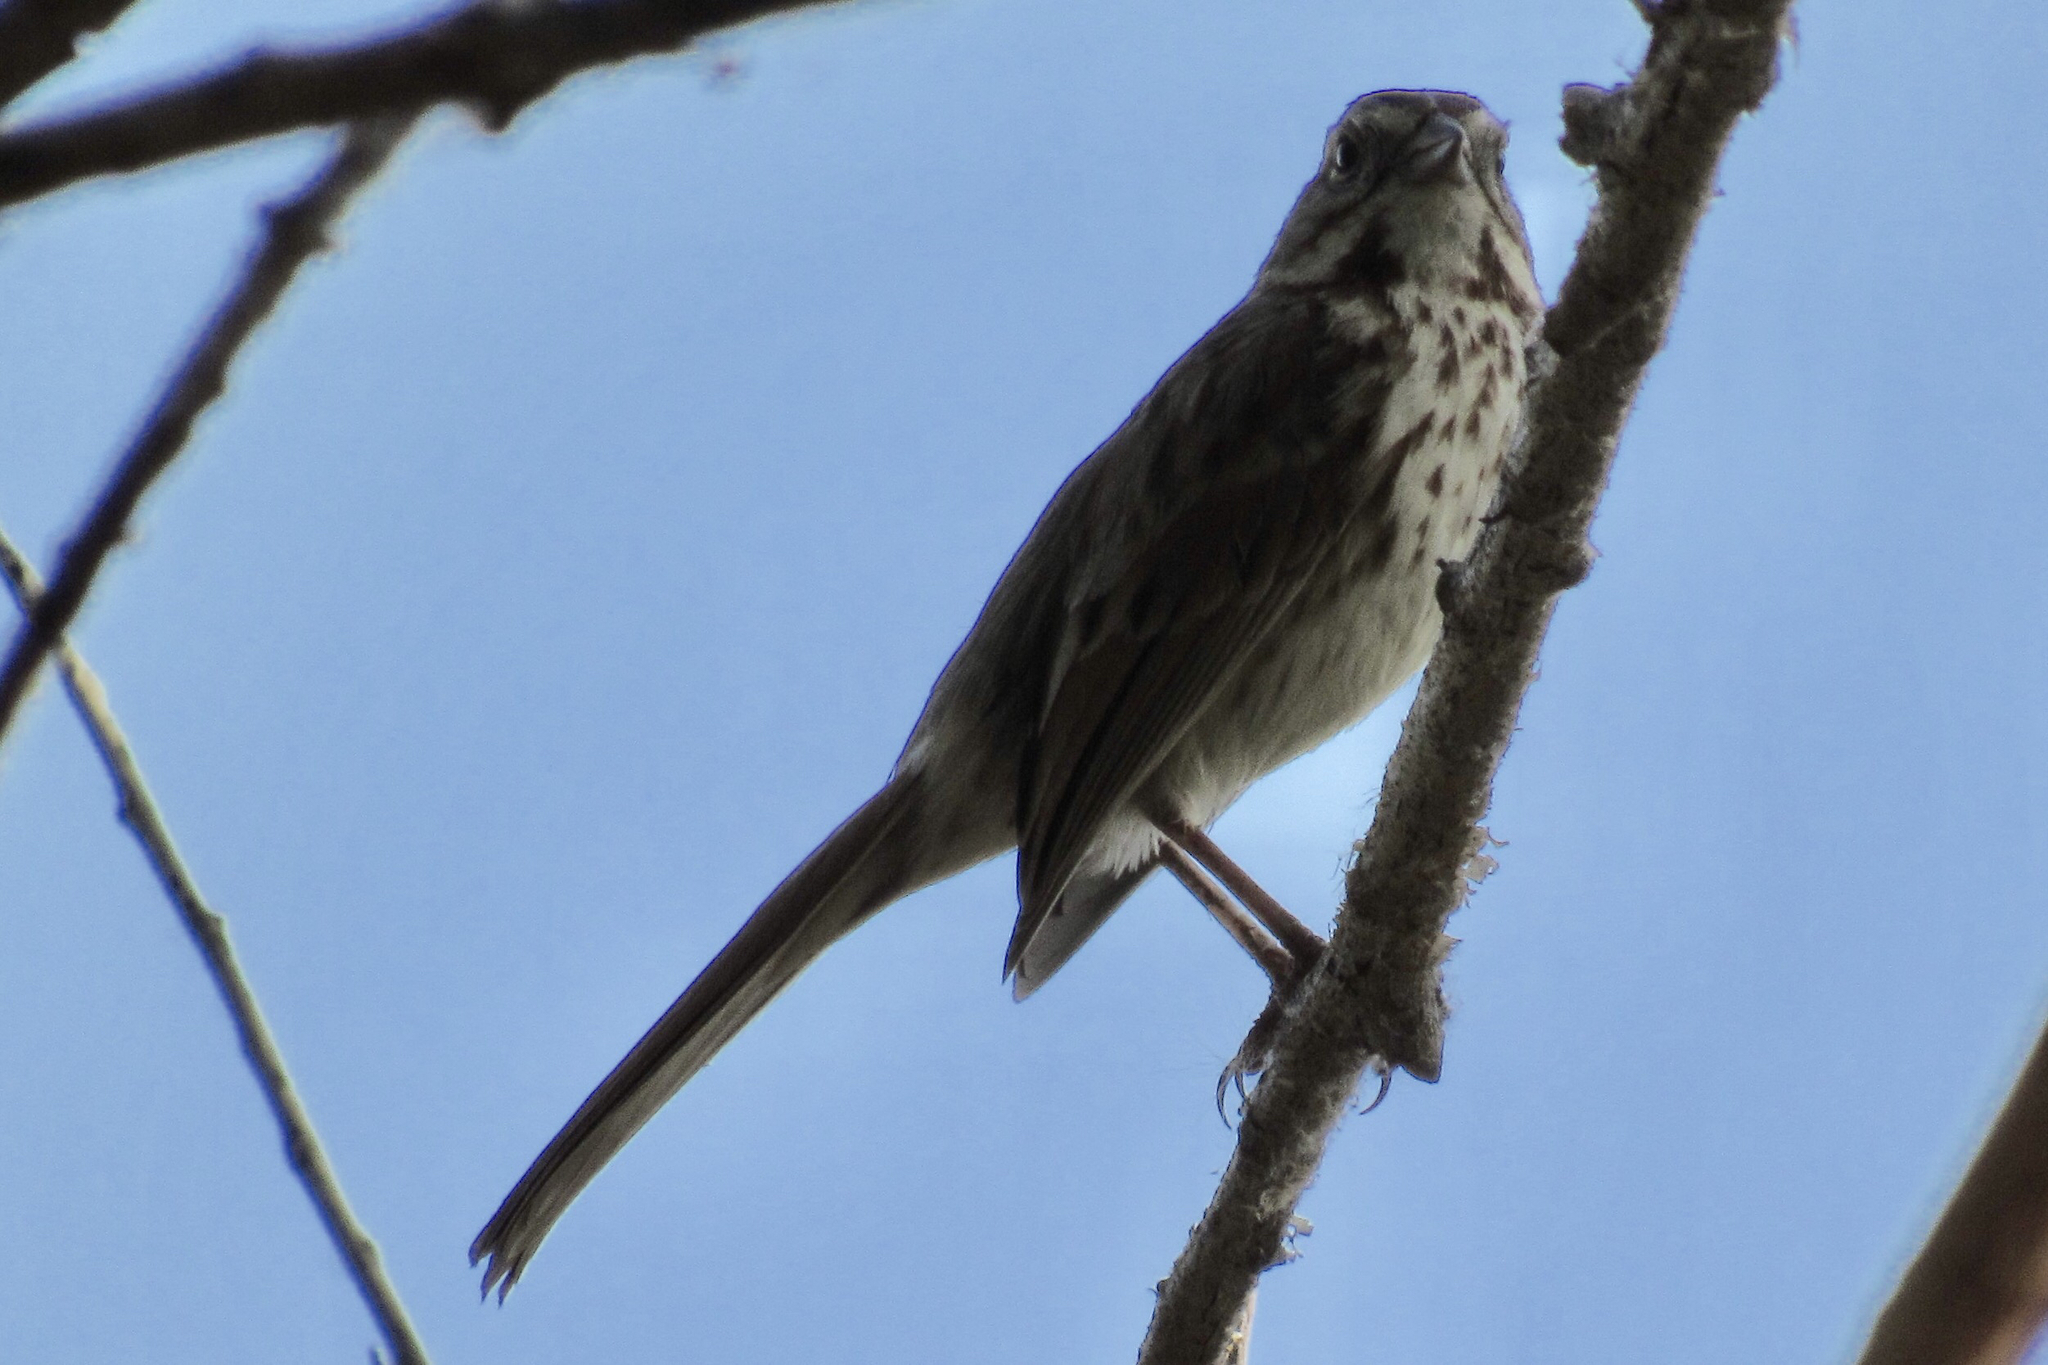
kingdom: Animalia
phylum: Chordata
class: Aves
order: Passeriformes
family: Passerellidae
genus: Melospiza
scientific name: Melospiza melodia
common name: Song sparrow
